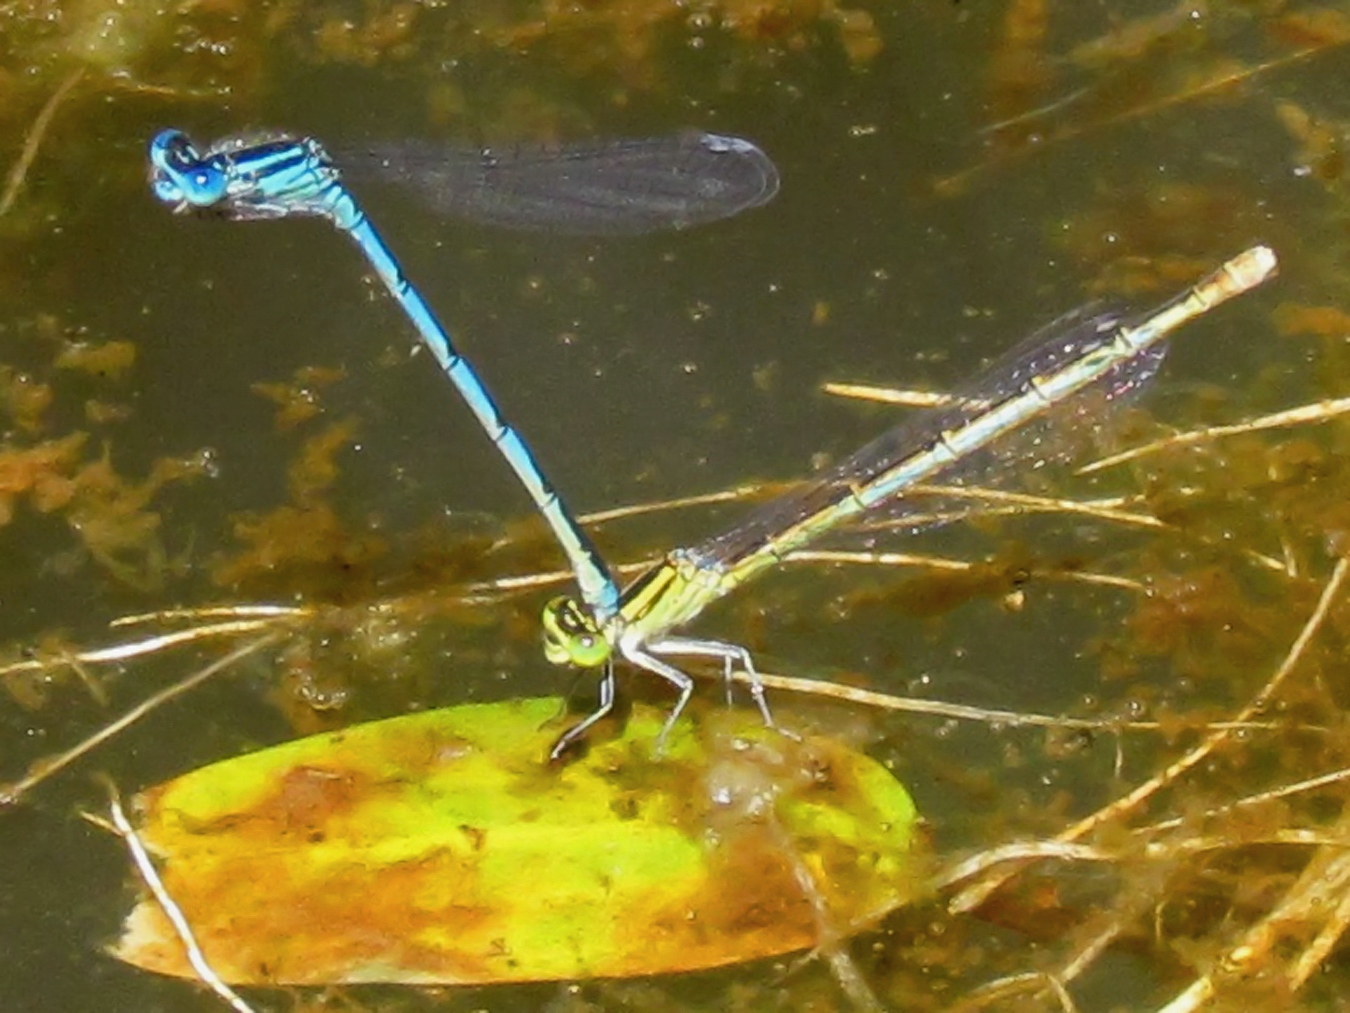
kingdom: Animalia
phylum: Arthropoda
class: Insecta
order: Odonata
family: Coenagrionidae
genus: Erythromma
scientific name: Erythromma lindenii
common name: Blue-eye
